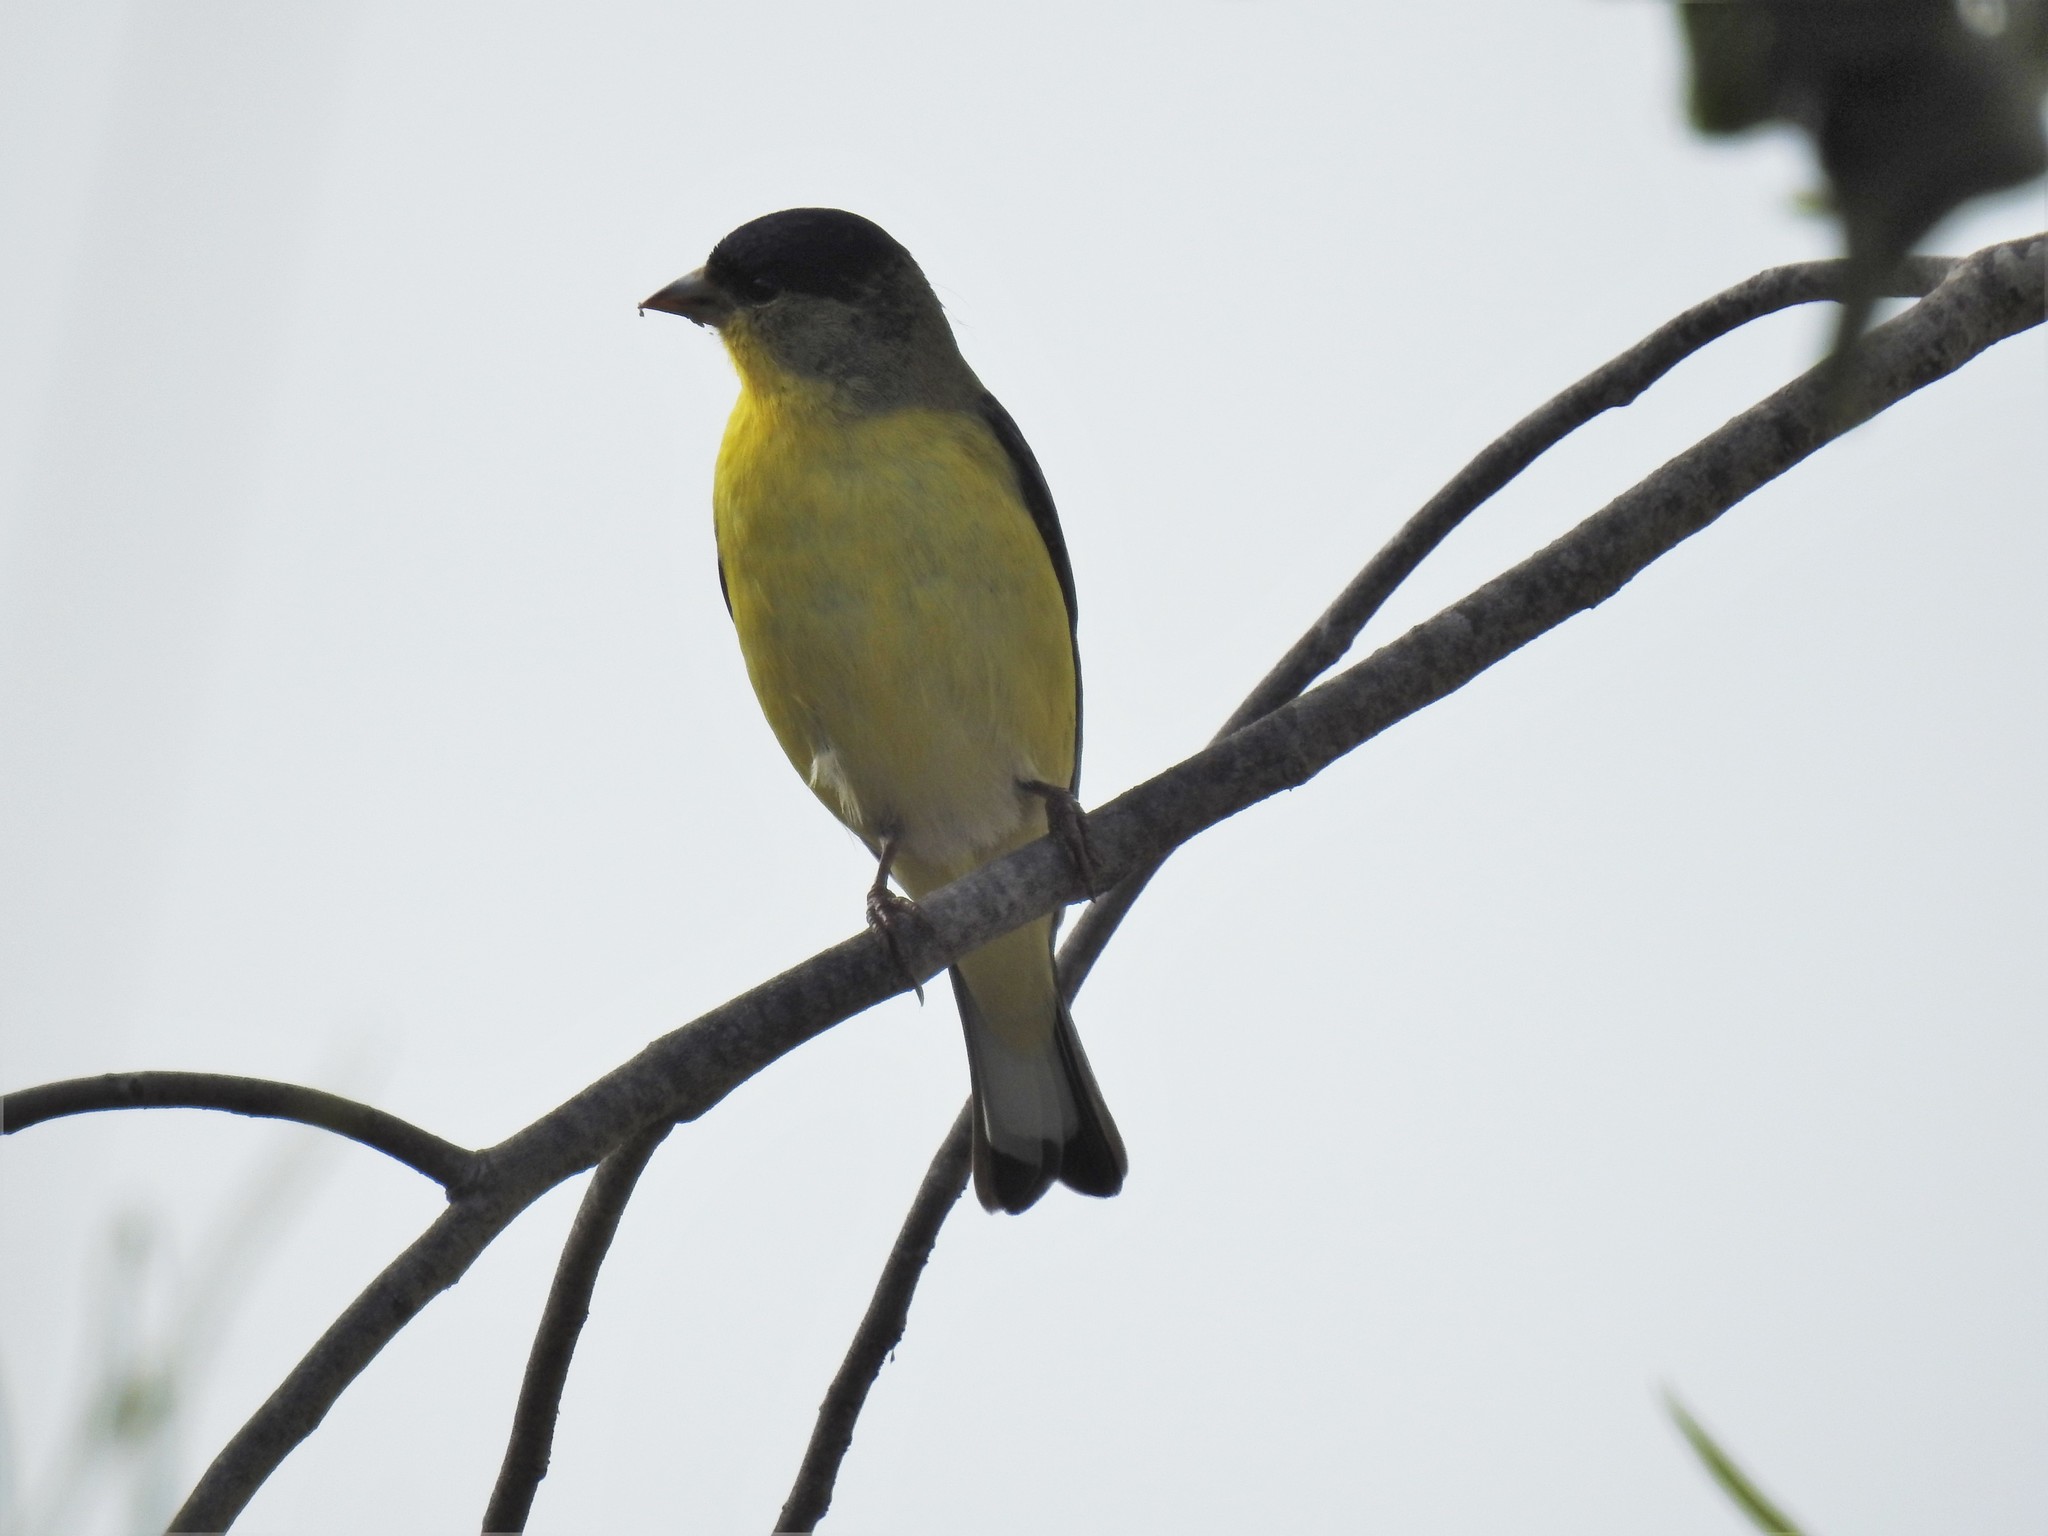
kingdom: Animalia
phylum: Chordata
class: Aves
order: Passeriformes
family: Fringillidae
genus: Spinus
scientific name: Spinus psaltria
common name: Lesser goldfinch
